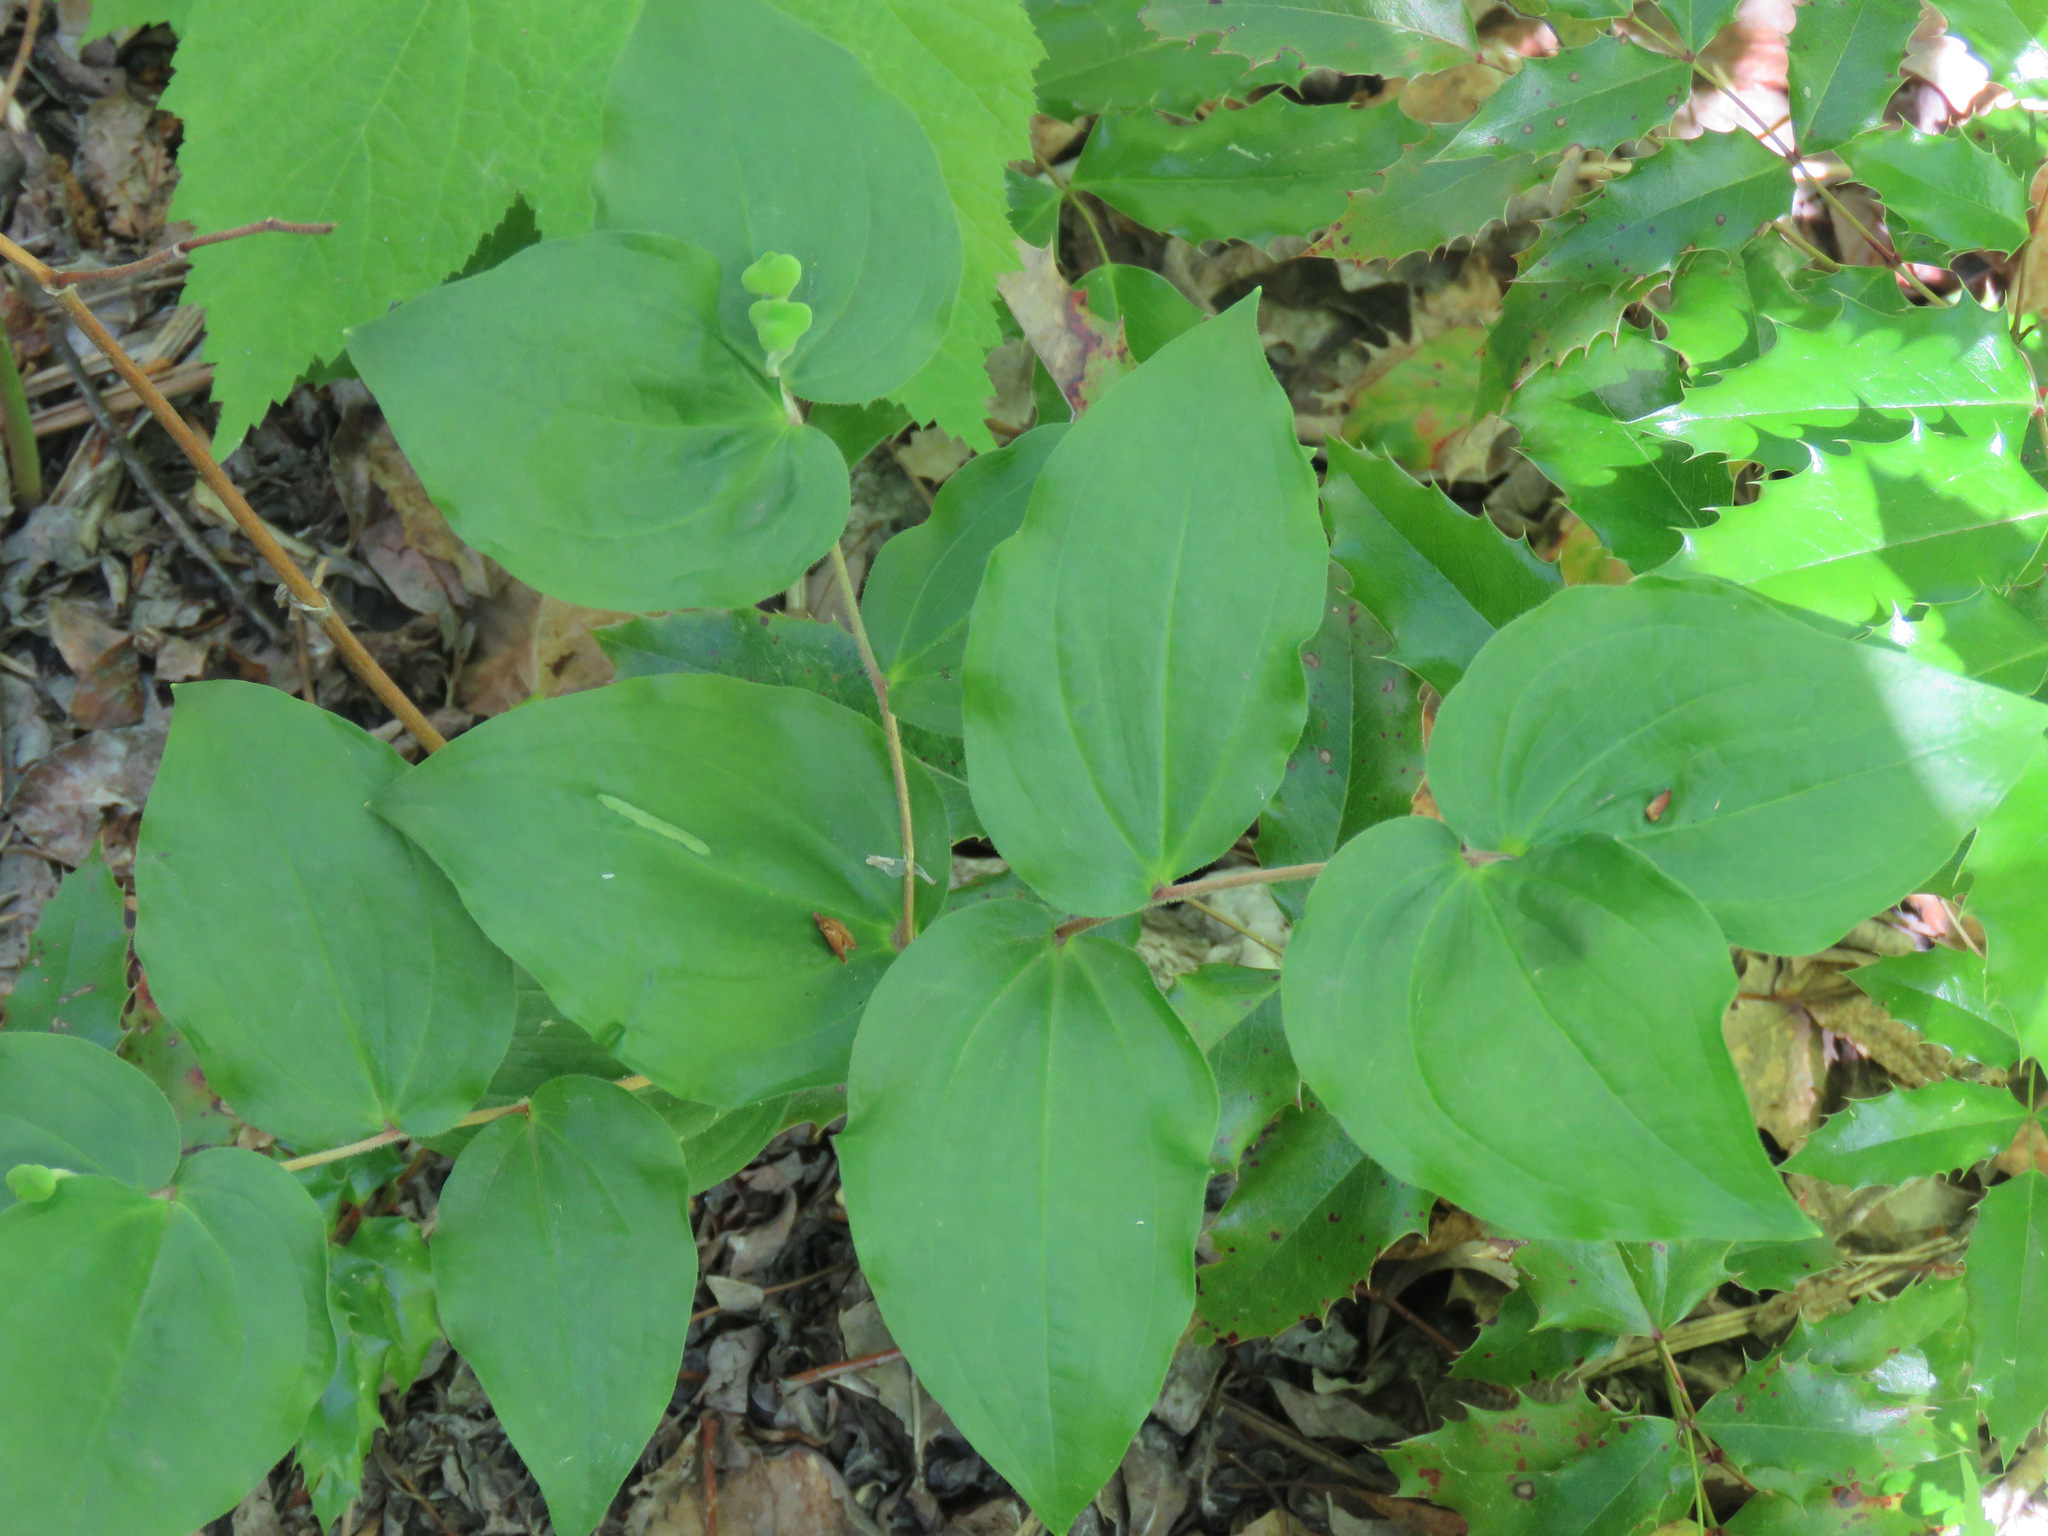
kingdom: Plantae
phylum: Tracheophyta
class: Liliopsida
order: Liliales
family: Liliaceae
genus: Prosartes
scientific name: Prosartes trachycarpa
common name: Rough-fruit fairy-bells
